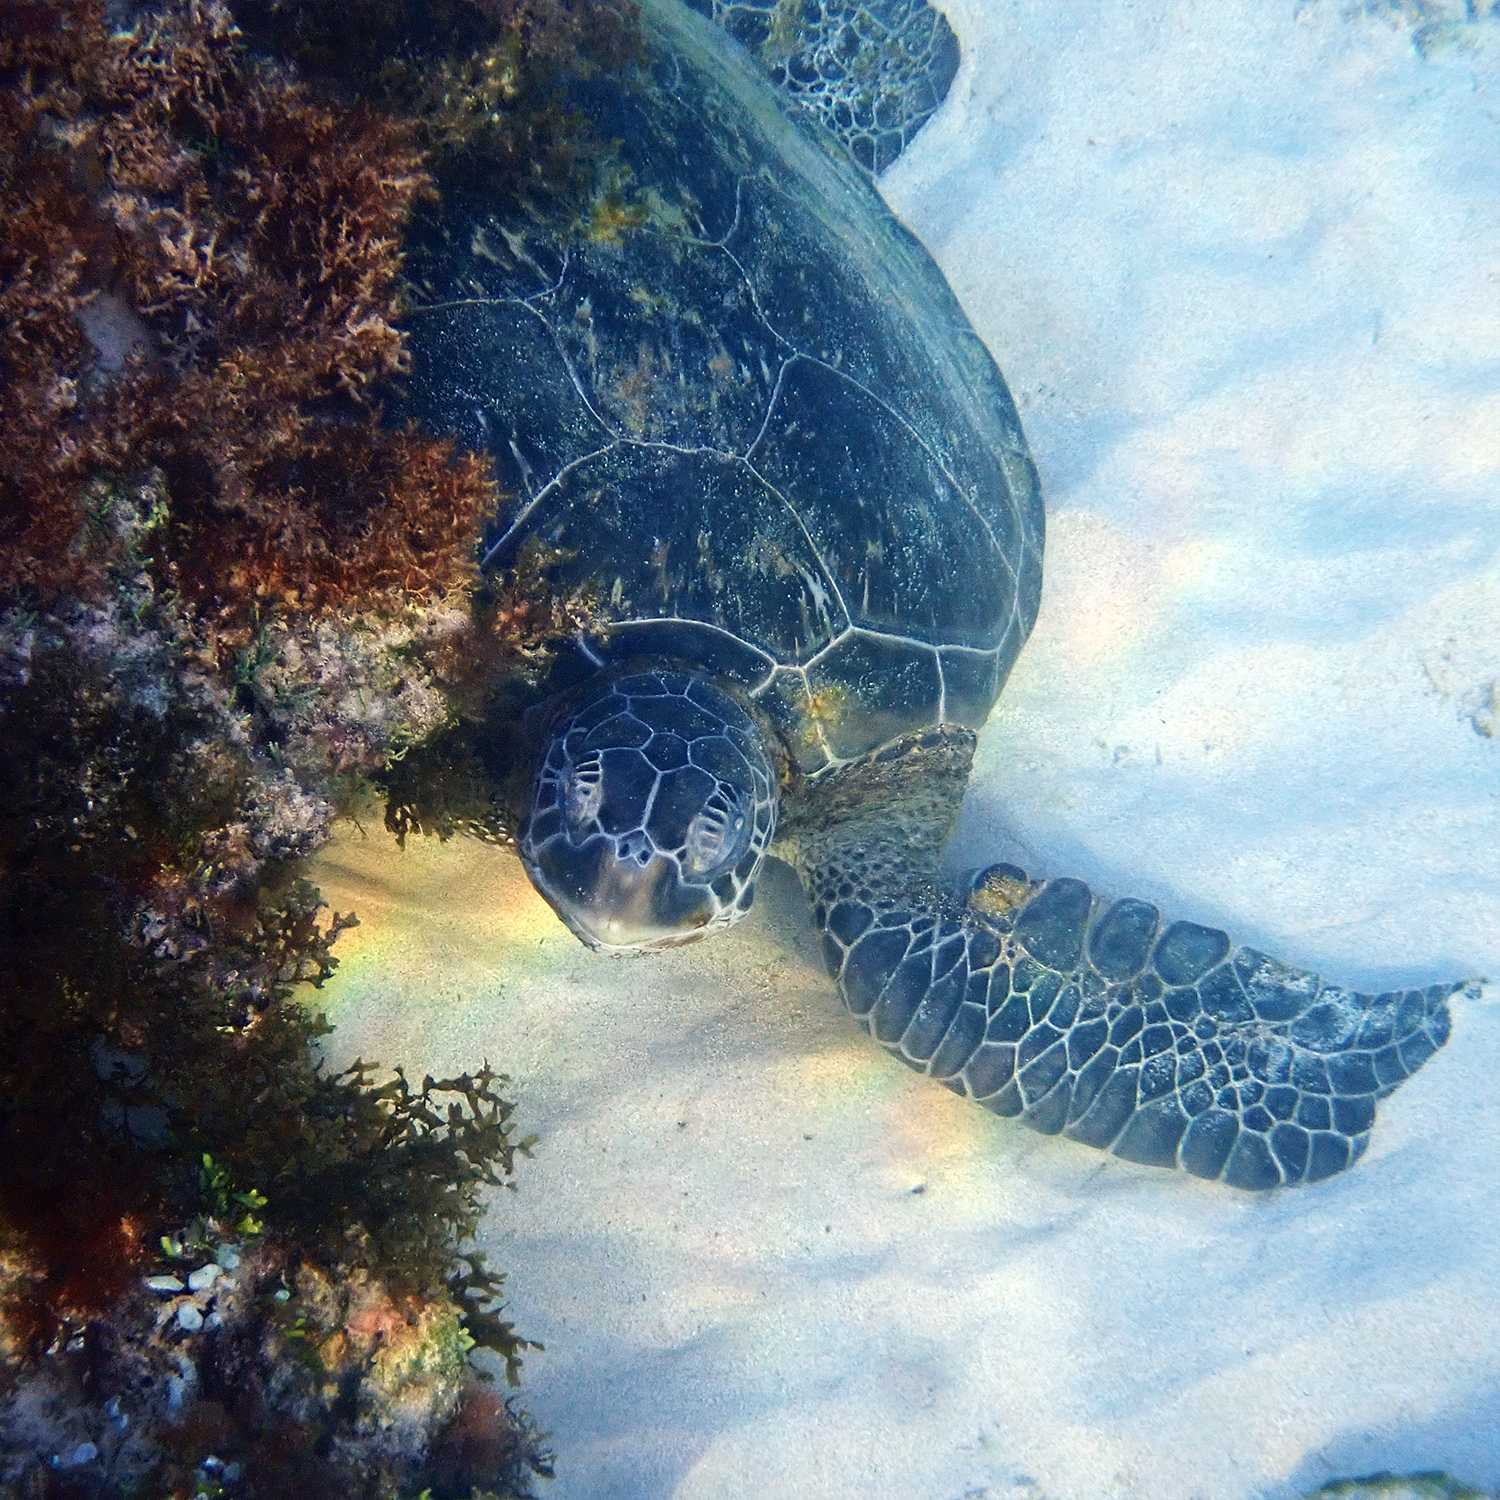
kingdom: Animalia
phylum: Chordata
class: Testudines
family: Cheloniidae
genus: Chelonia
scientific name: Chelonia mydas
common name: Green turtle
